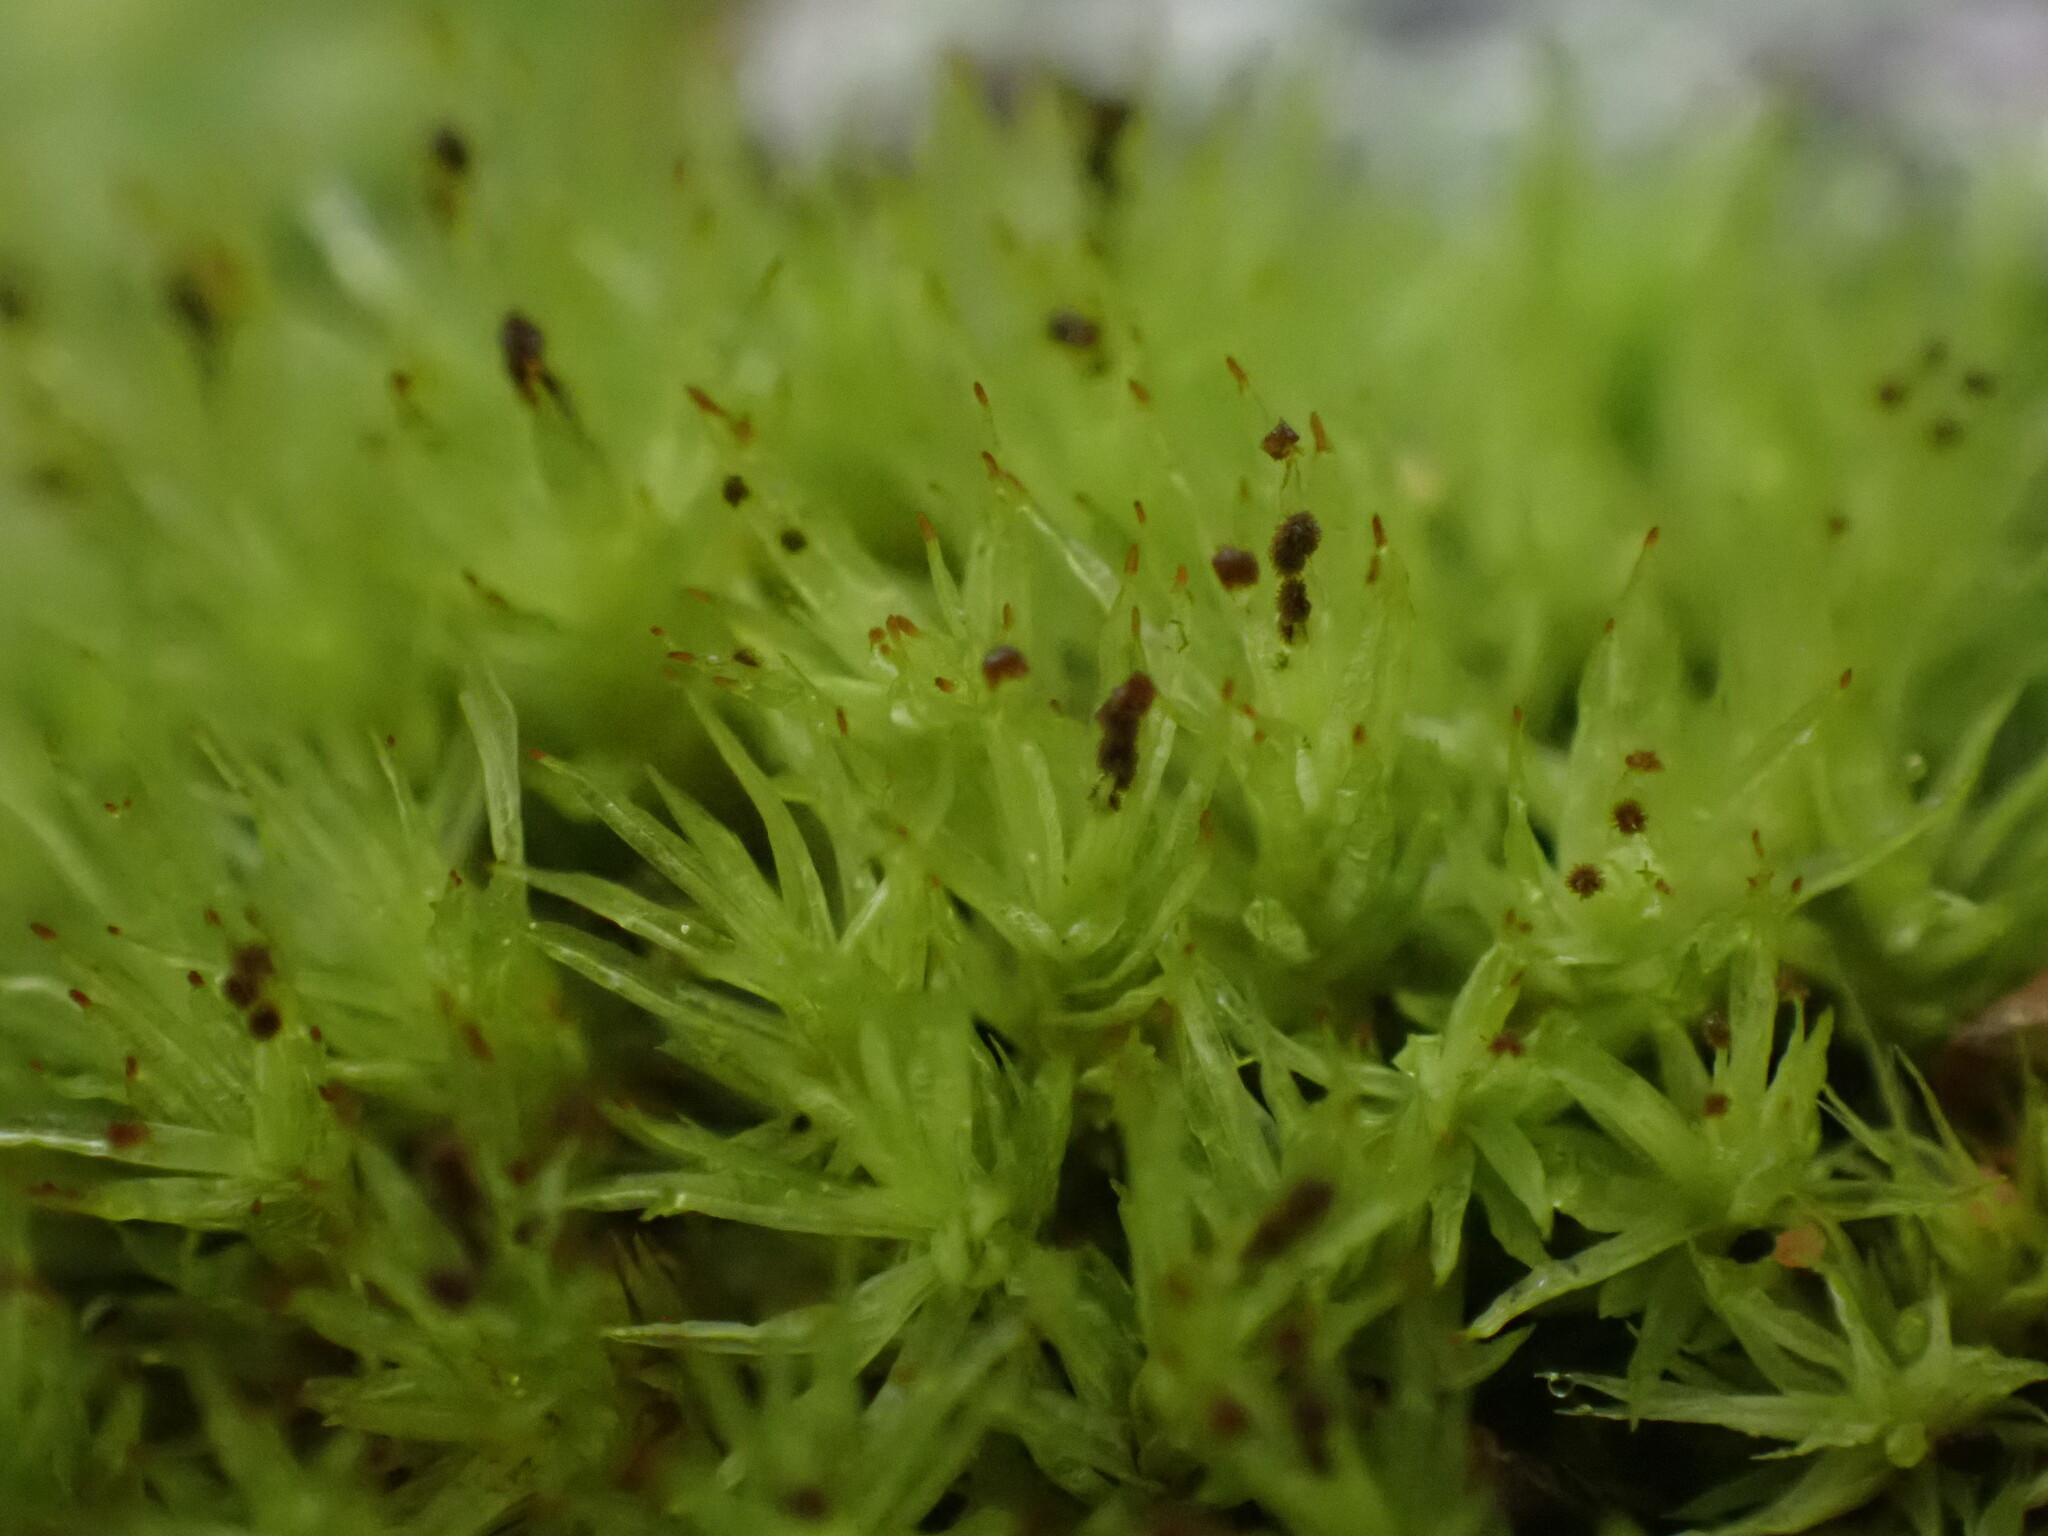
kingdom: Plantae
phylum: Bryophyta
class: Bryopsida
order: Orthotrichales
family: Orthotrichaceae
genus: Plenogemma
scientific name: Plenogemma phyllantha
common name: Frizzled pincushion
